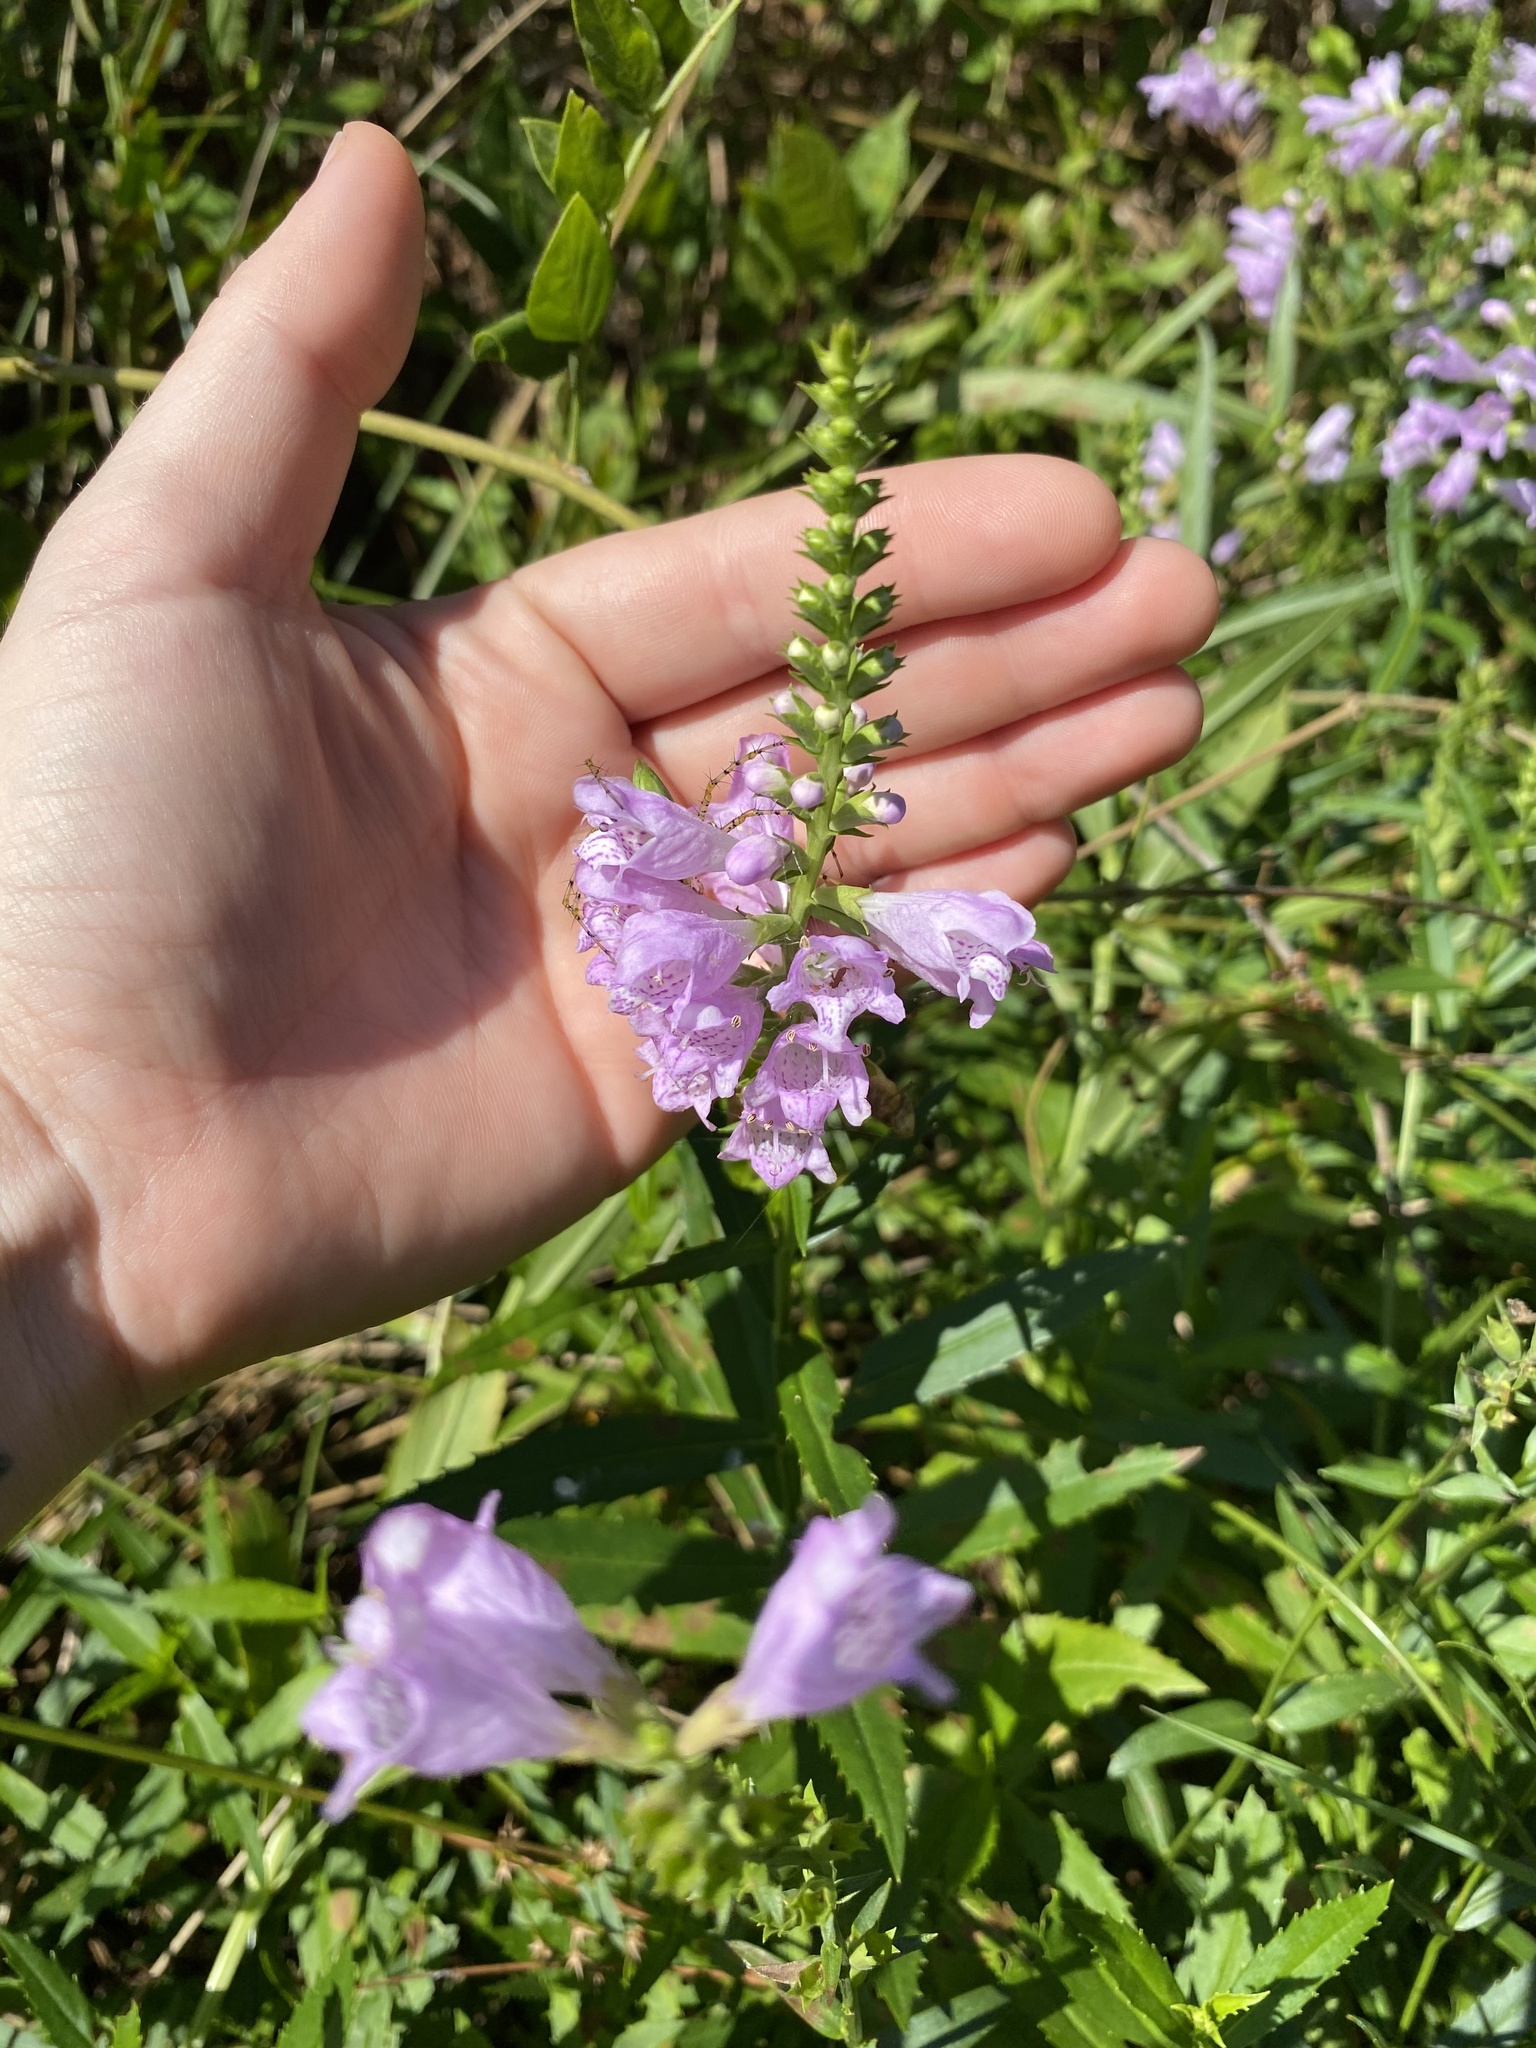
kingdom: Plantae
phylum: Tracheophyta
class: Magnoliopsida
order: Lamiales
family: Lamiaceae
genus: Physostegia
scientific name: Physostegia virginiana
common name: Obedient-plant
